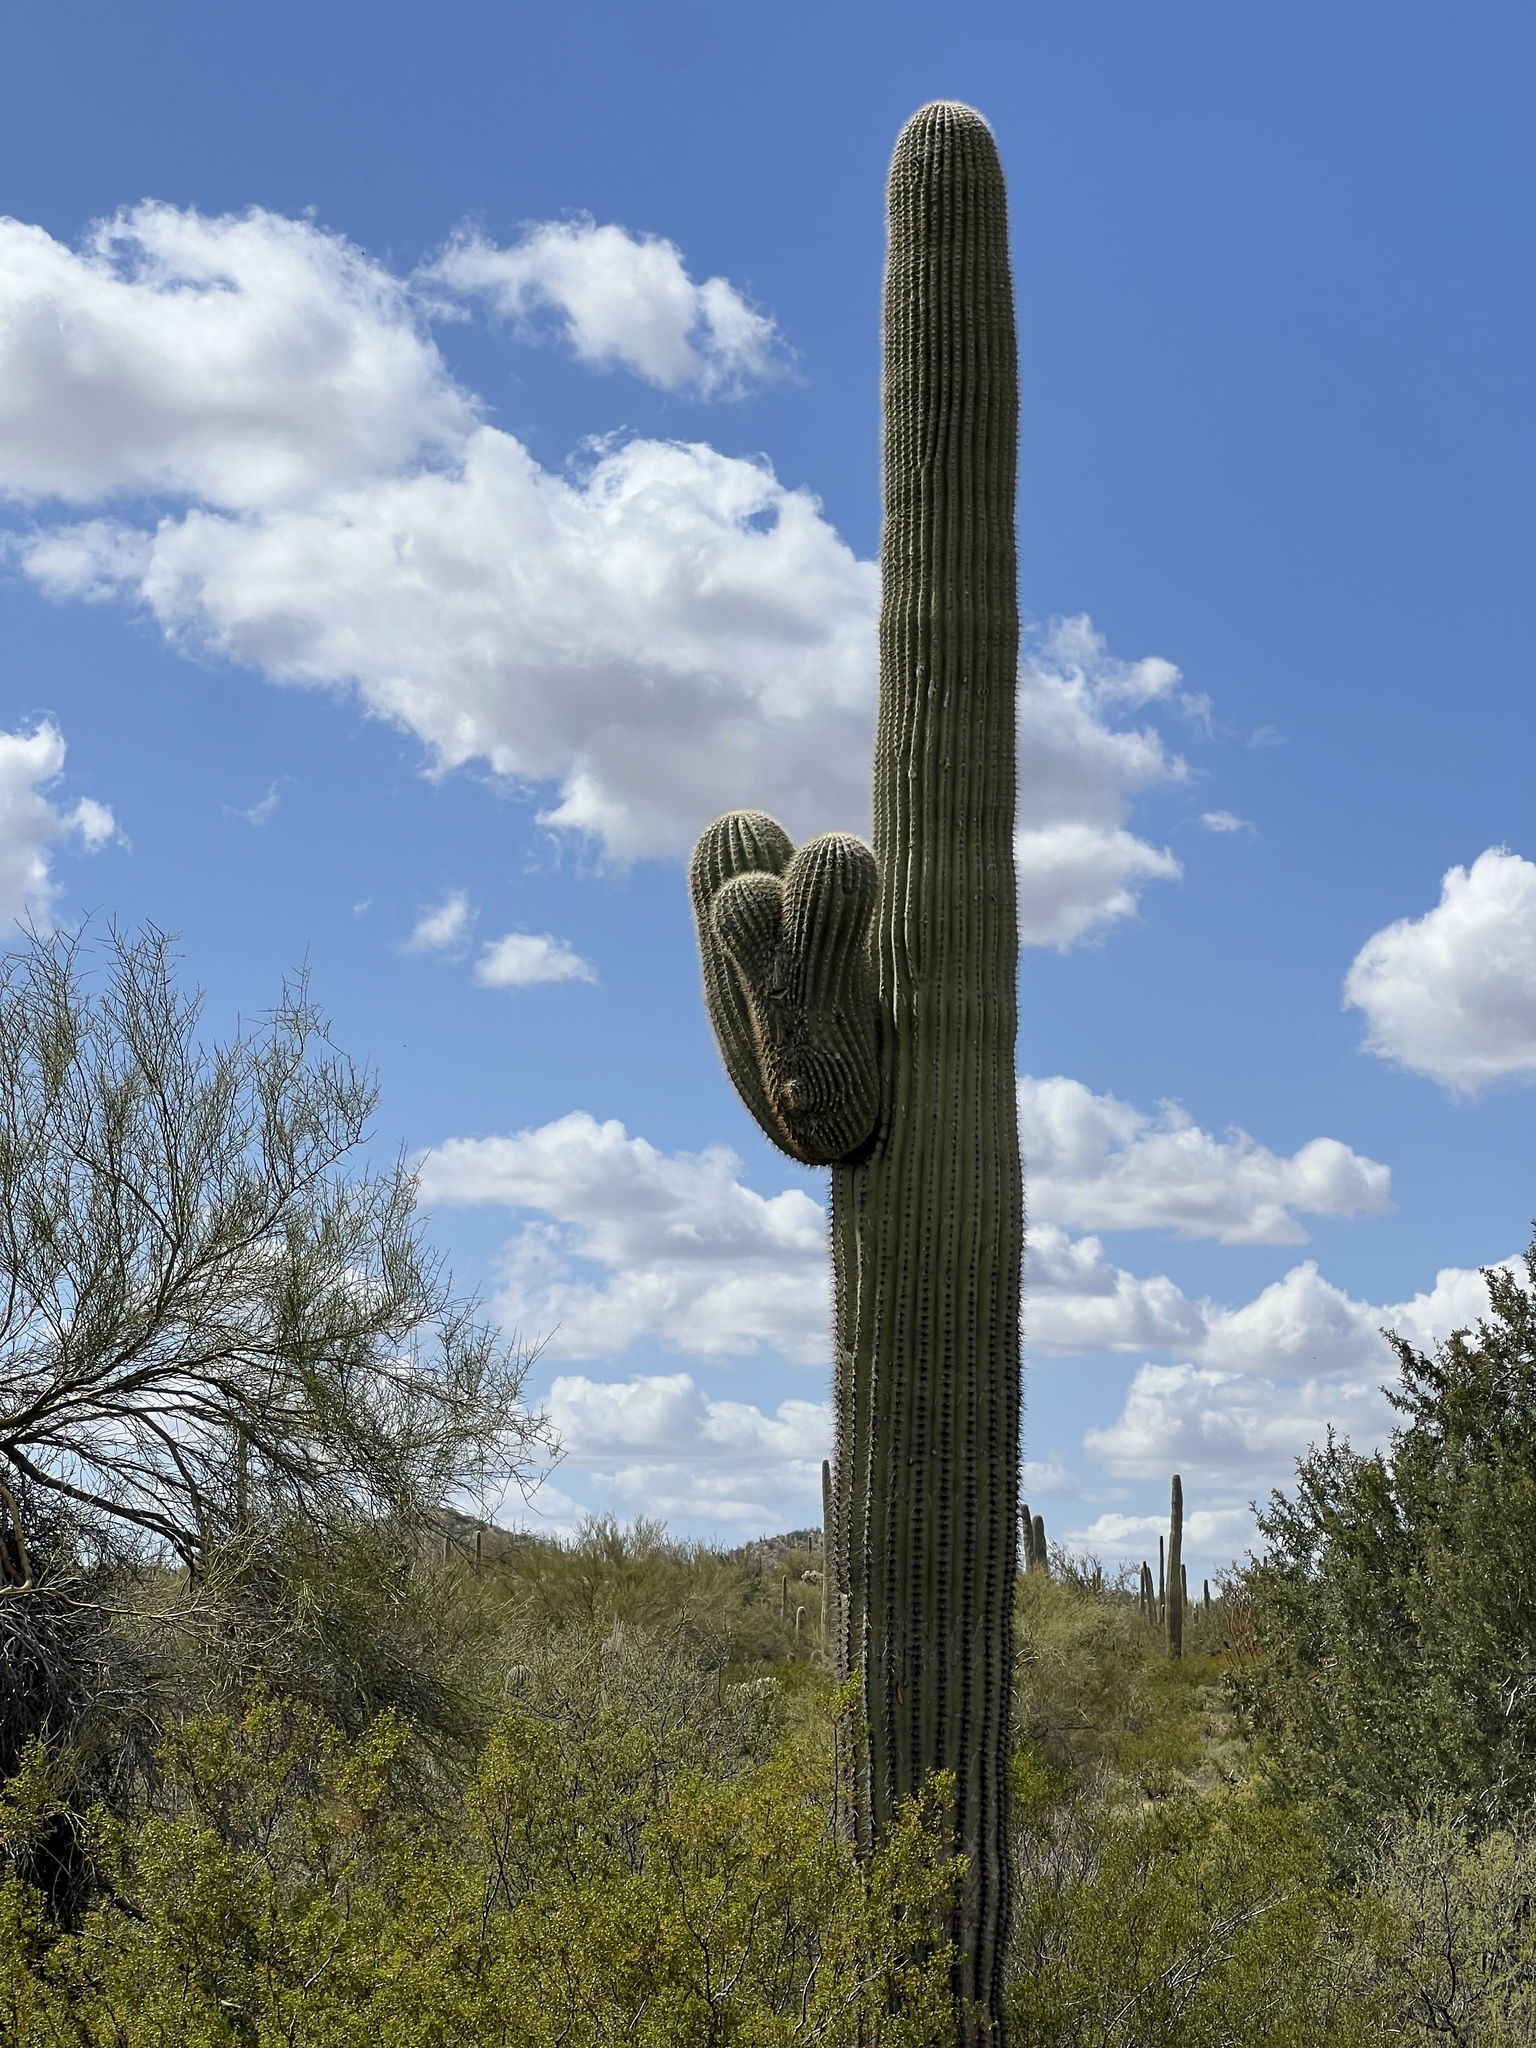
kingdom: Plantae
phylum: Tracheophyta
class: Magnoliopsida
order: Caryophyllales
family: Cactaceae
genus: Carnegiea
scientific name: Carnegiea gigantea
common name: Saguaro
